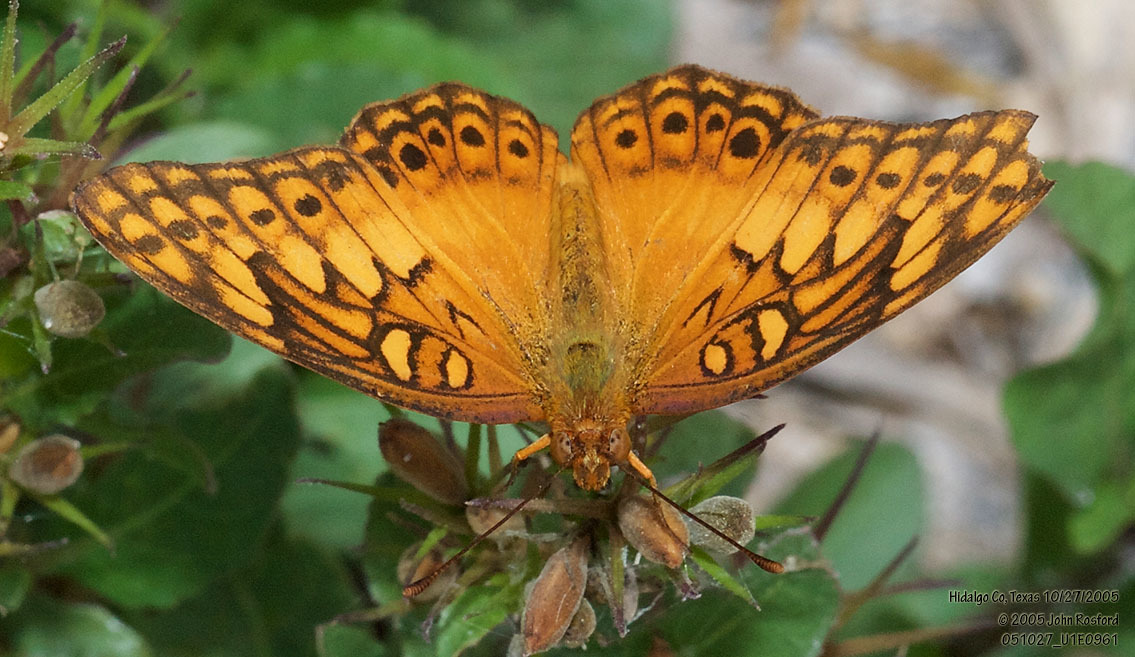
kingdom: Animalia
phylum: Arthropoda
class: Insecta
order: Lepidoptera
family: Nymphalidae
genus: Euptoieta
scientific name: Euptoieta hegesia
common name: Mexican fritillary
